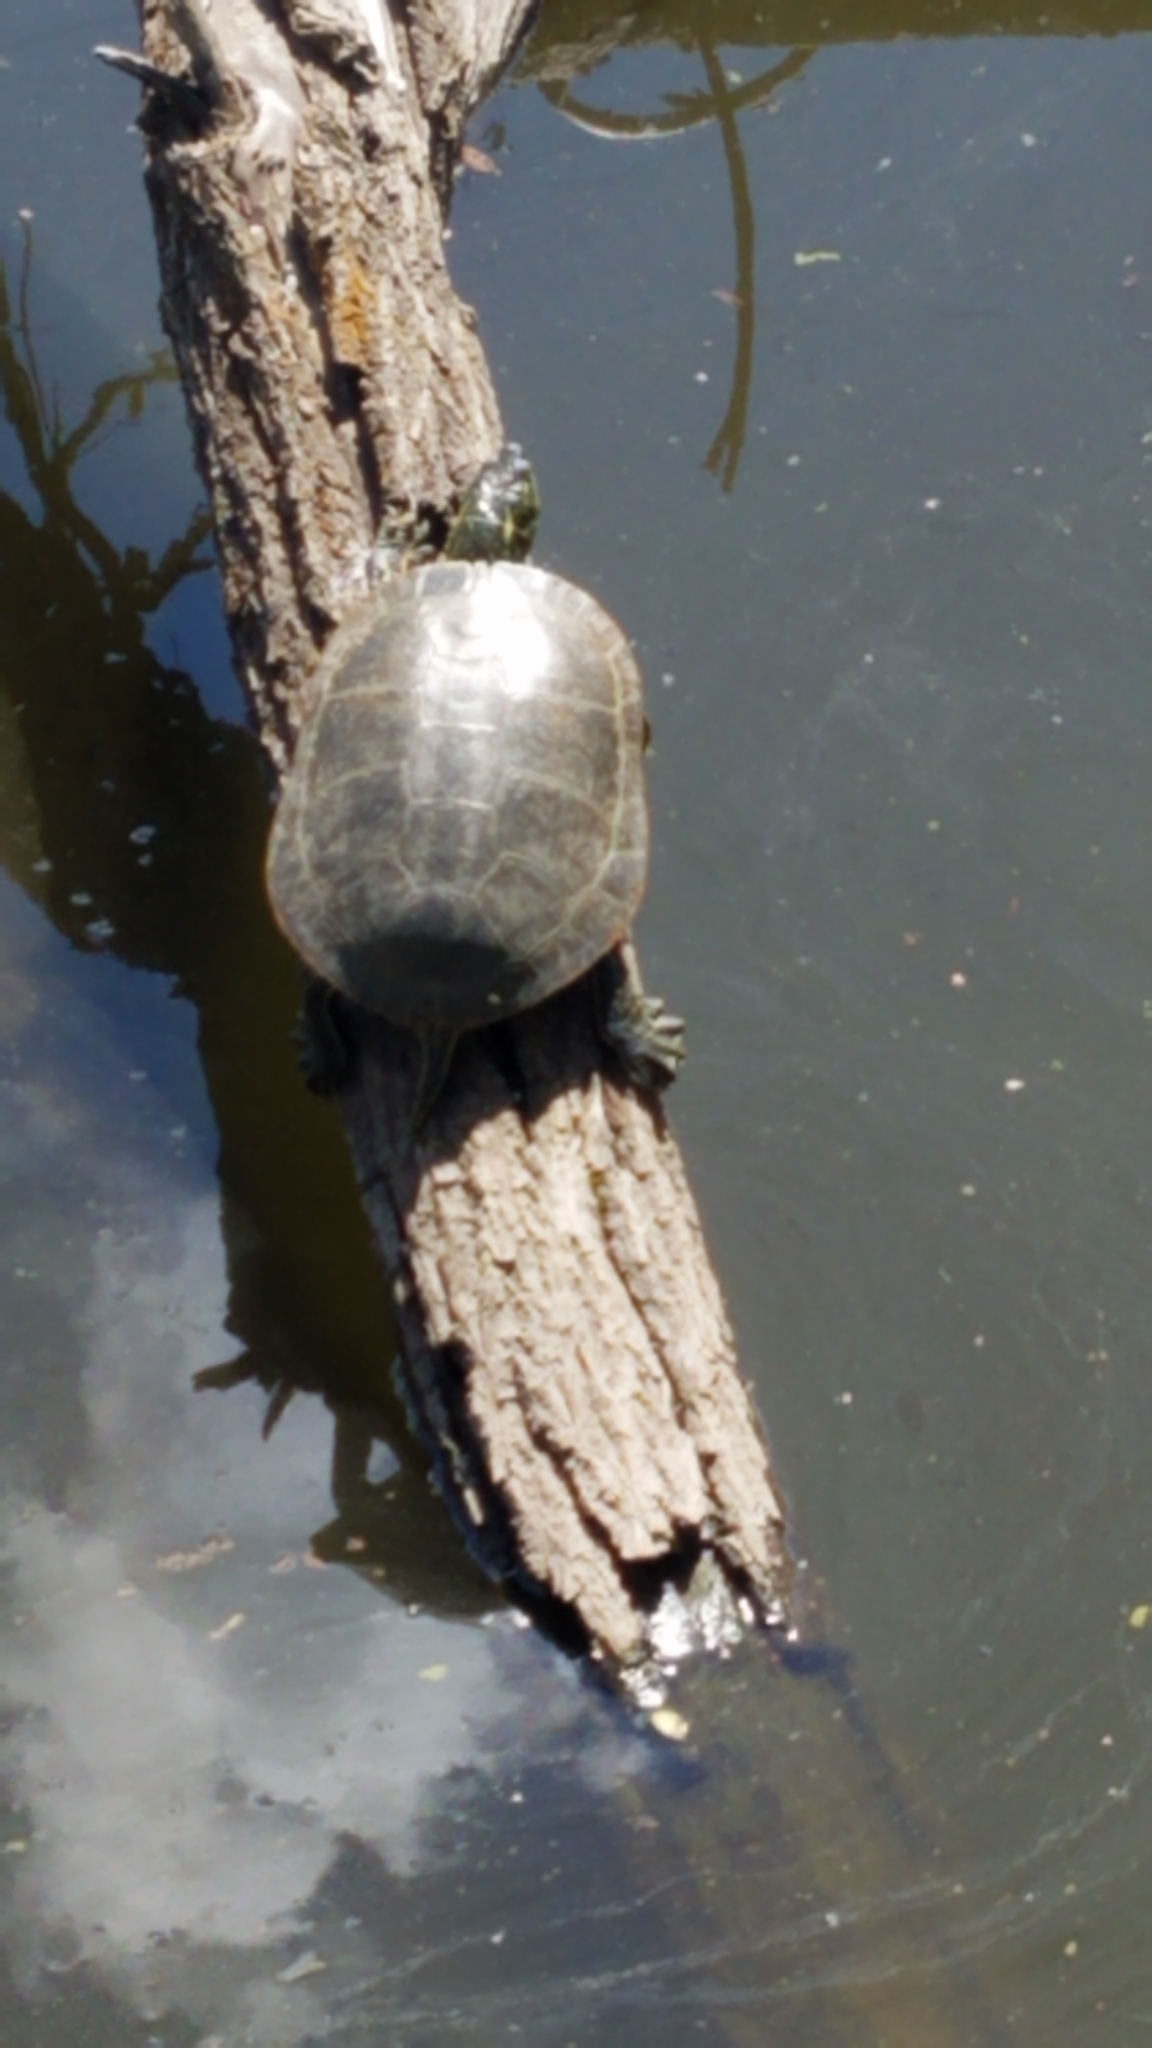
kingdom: Animalia
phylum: Chordata
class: Testudines
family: Emydidae
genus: Chrysemys
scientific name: Chrysemys picta
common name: Painted turtle
